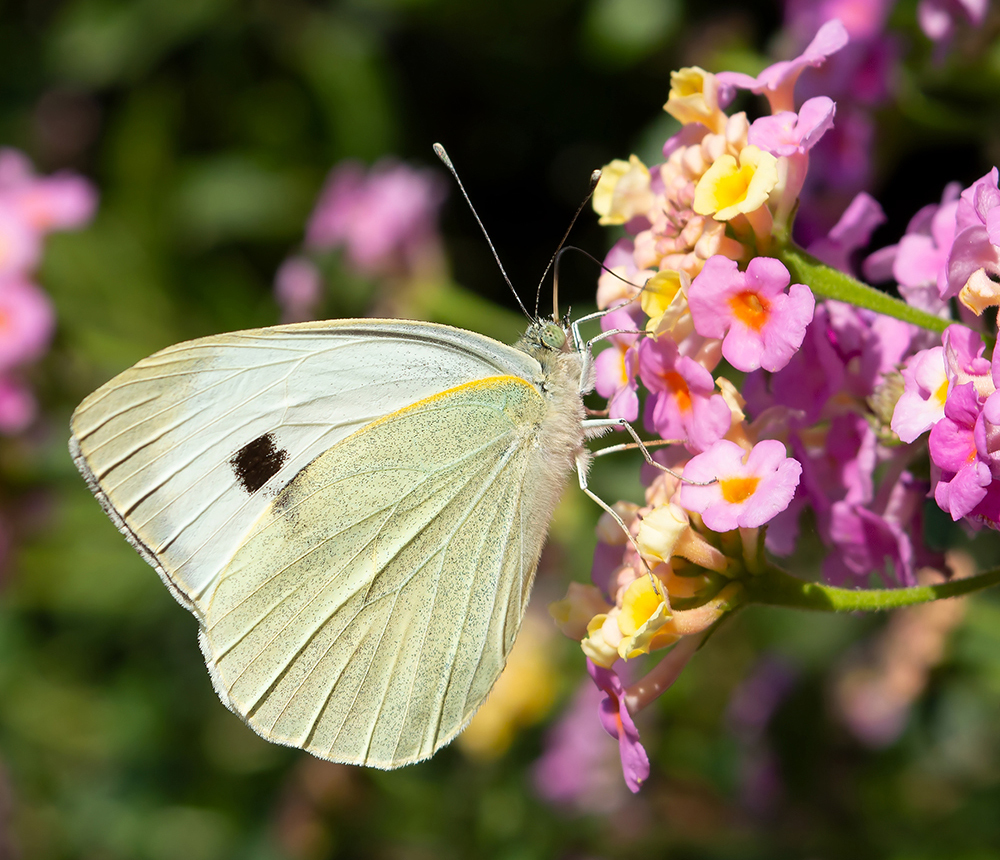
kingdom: Animalia
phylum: Arthropoda
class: Insecta
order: Lepidoptera
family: Pieridae
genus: Pieris
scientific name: Pieris brassicae
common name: Large white
